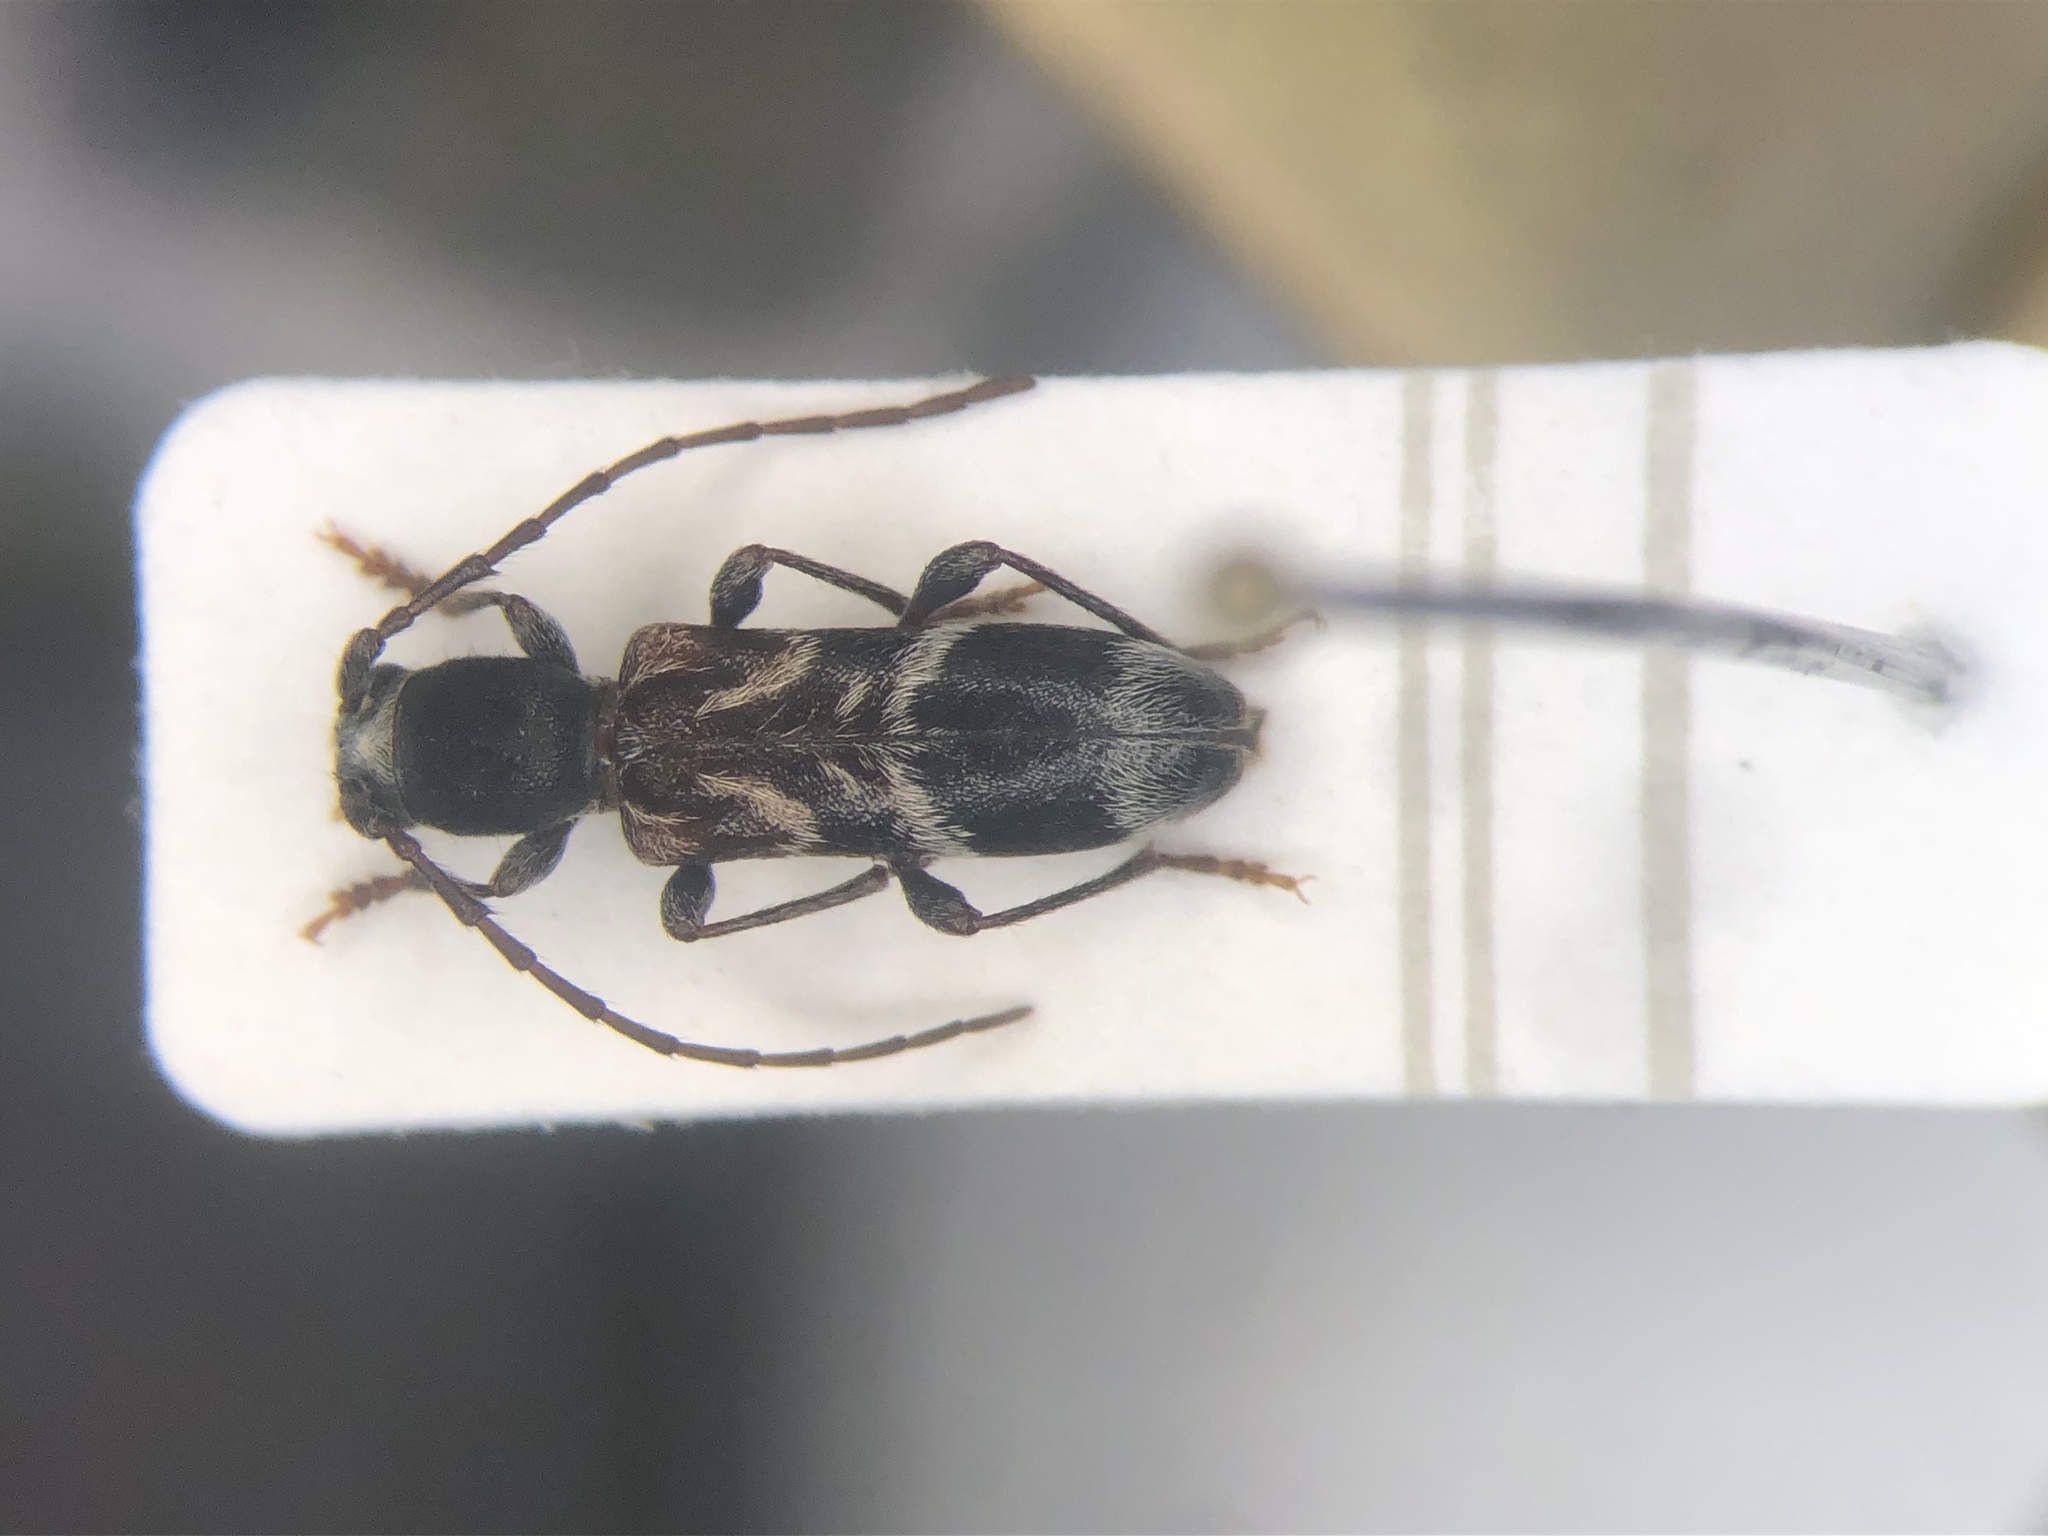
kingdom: Animalia
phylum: Arthropoda
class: Insecta
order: Coleoptera
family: Cerambycidae
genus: Oligoenoplus
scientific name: Oligoenoplus compressicollis
